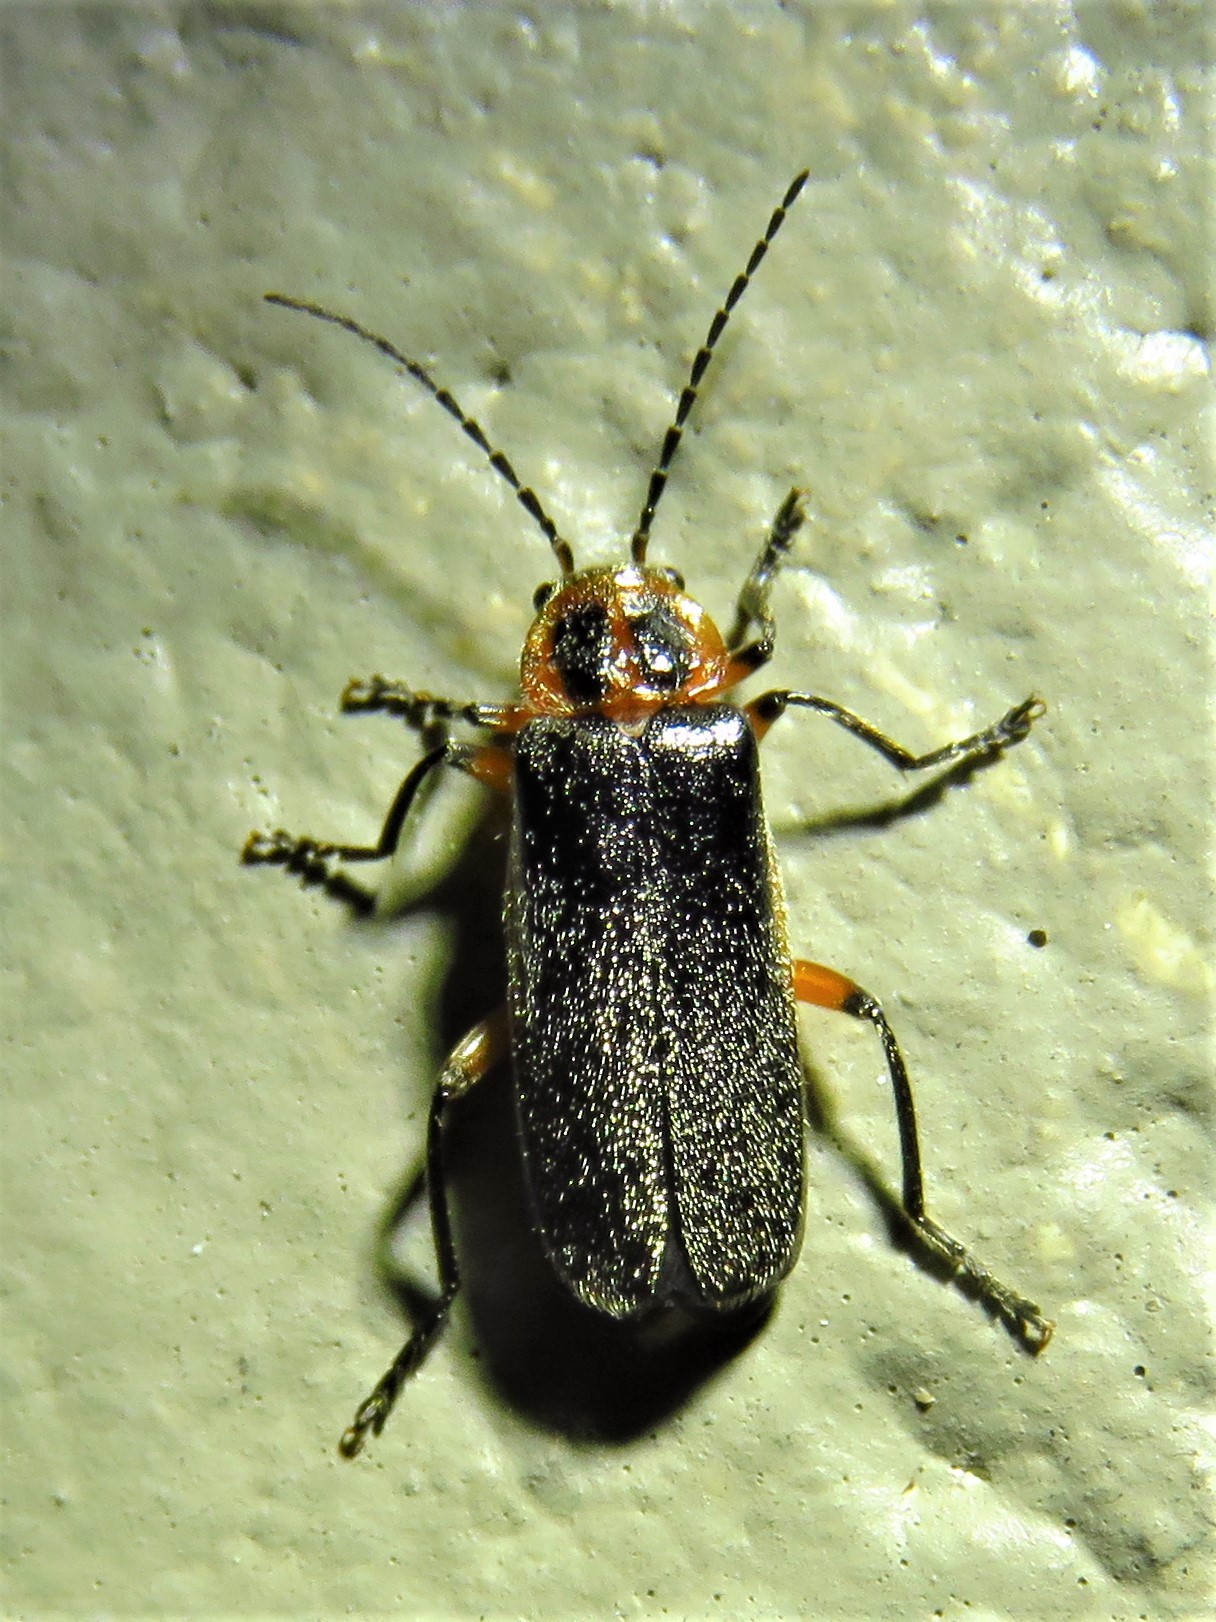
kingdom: Animalia
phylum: Arthropoda
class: Insecta
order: Coleoptera
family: Cantharidae
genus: Atalantycha
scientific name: Atalantycha bilineata
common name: Two-lined leatherwing
